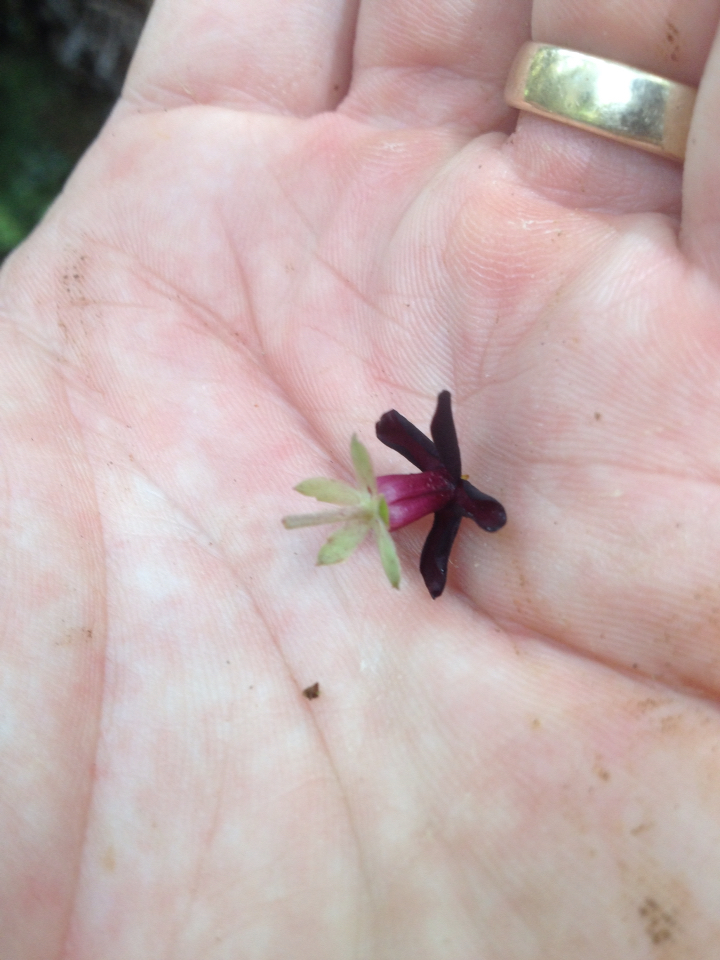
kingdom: Plantae
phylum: Tracheophyta
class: Magnoliopsida
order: Apiales
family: Pittosporaceae
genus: Pittosporum
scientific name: Pittosporum tenuifolium
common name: Kohuhu
